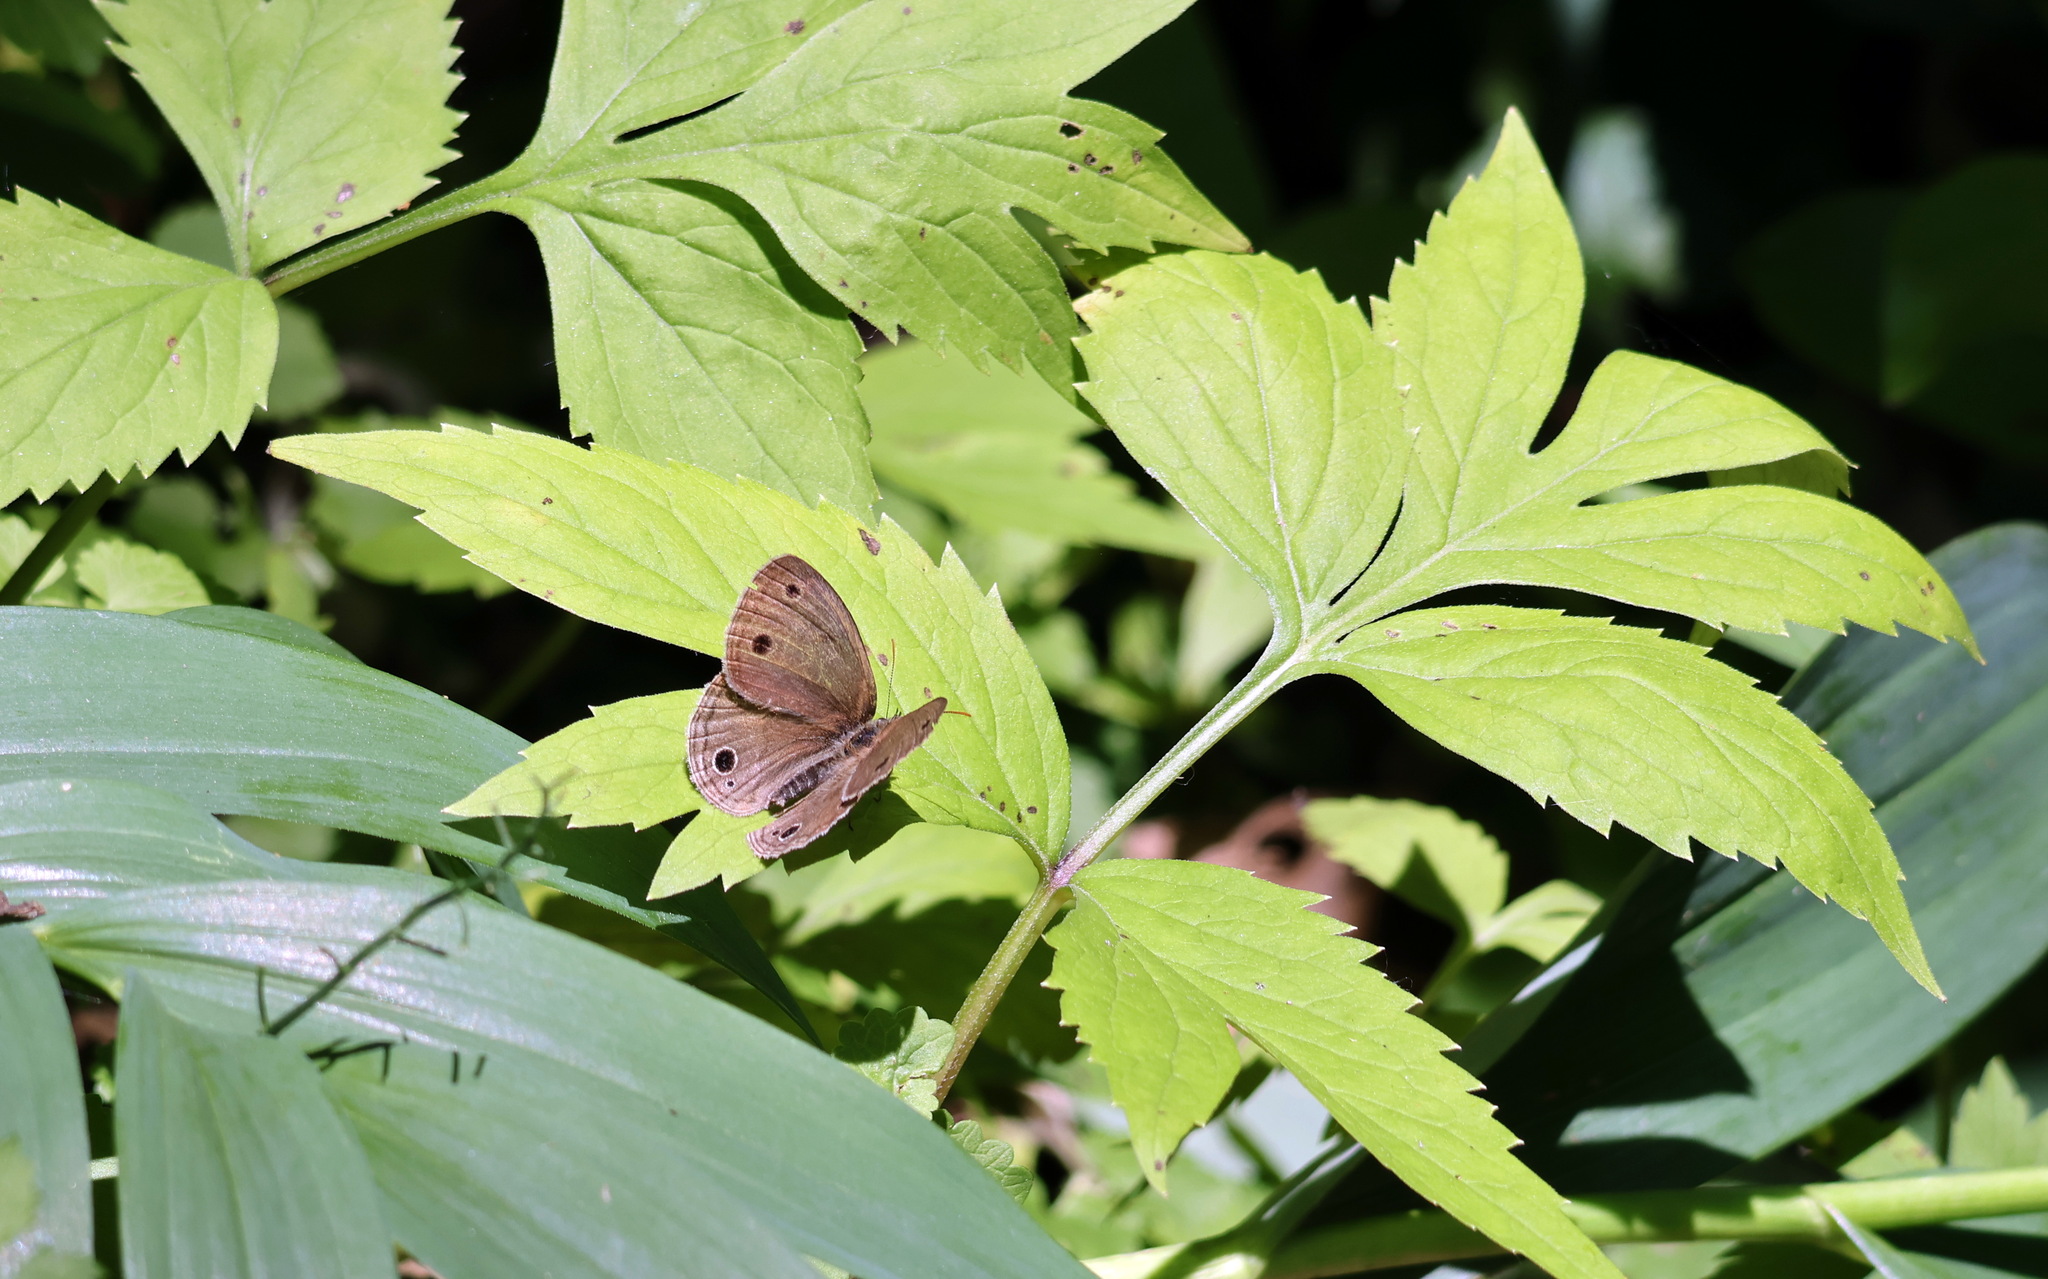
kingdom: Animalia
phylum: Arthropoda
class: Insecta
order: Lepidoptera
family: Nymphalidae
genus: Euptychia
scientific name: Euptychia cymela
